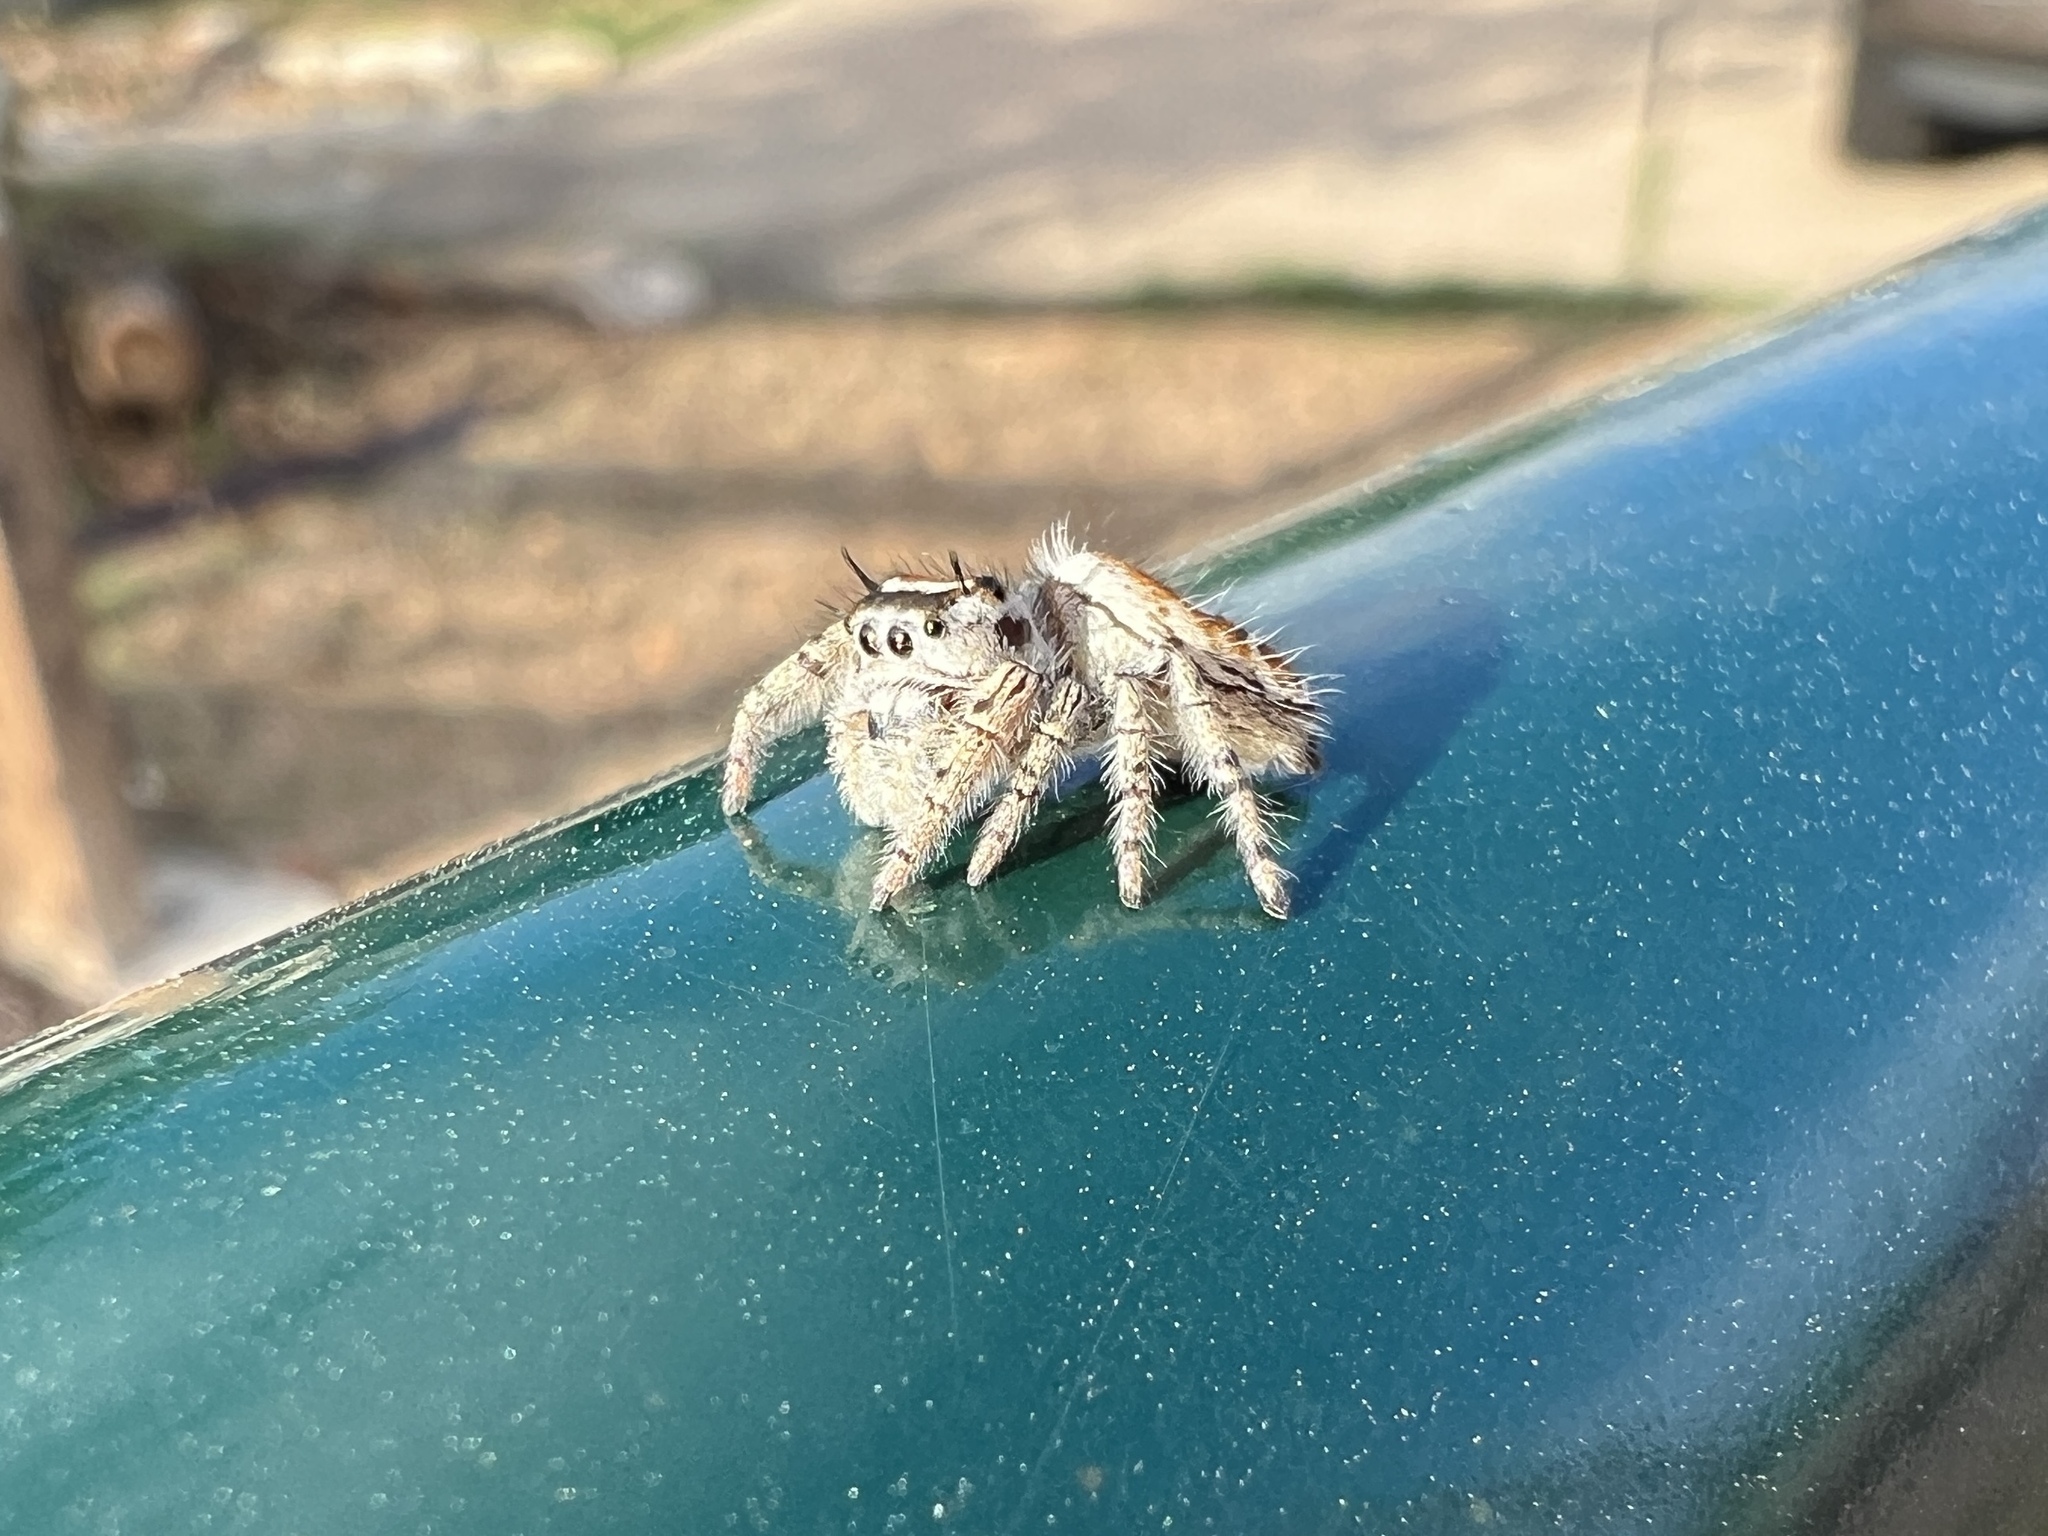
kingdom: Animalia
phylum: Arthropoda
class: Arachnida
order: Araneae
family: Salticidae
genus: Phidippus
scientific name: Phidippus arizonensis
